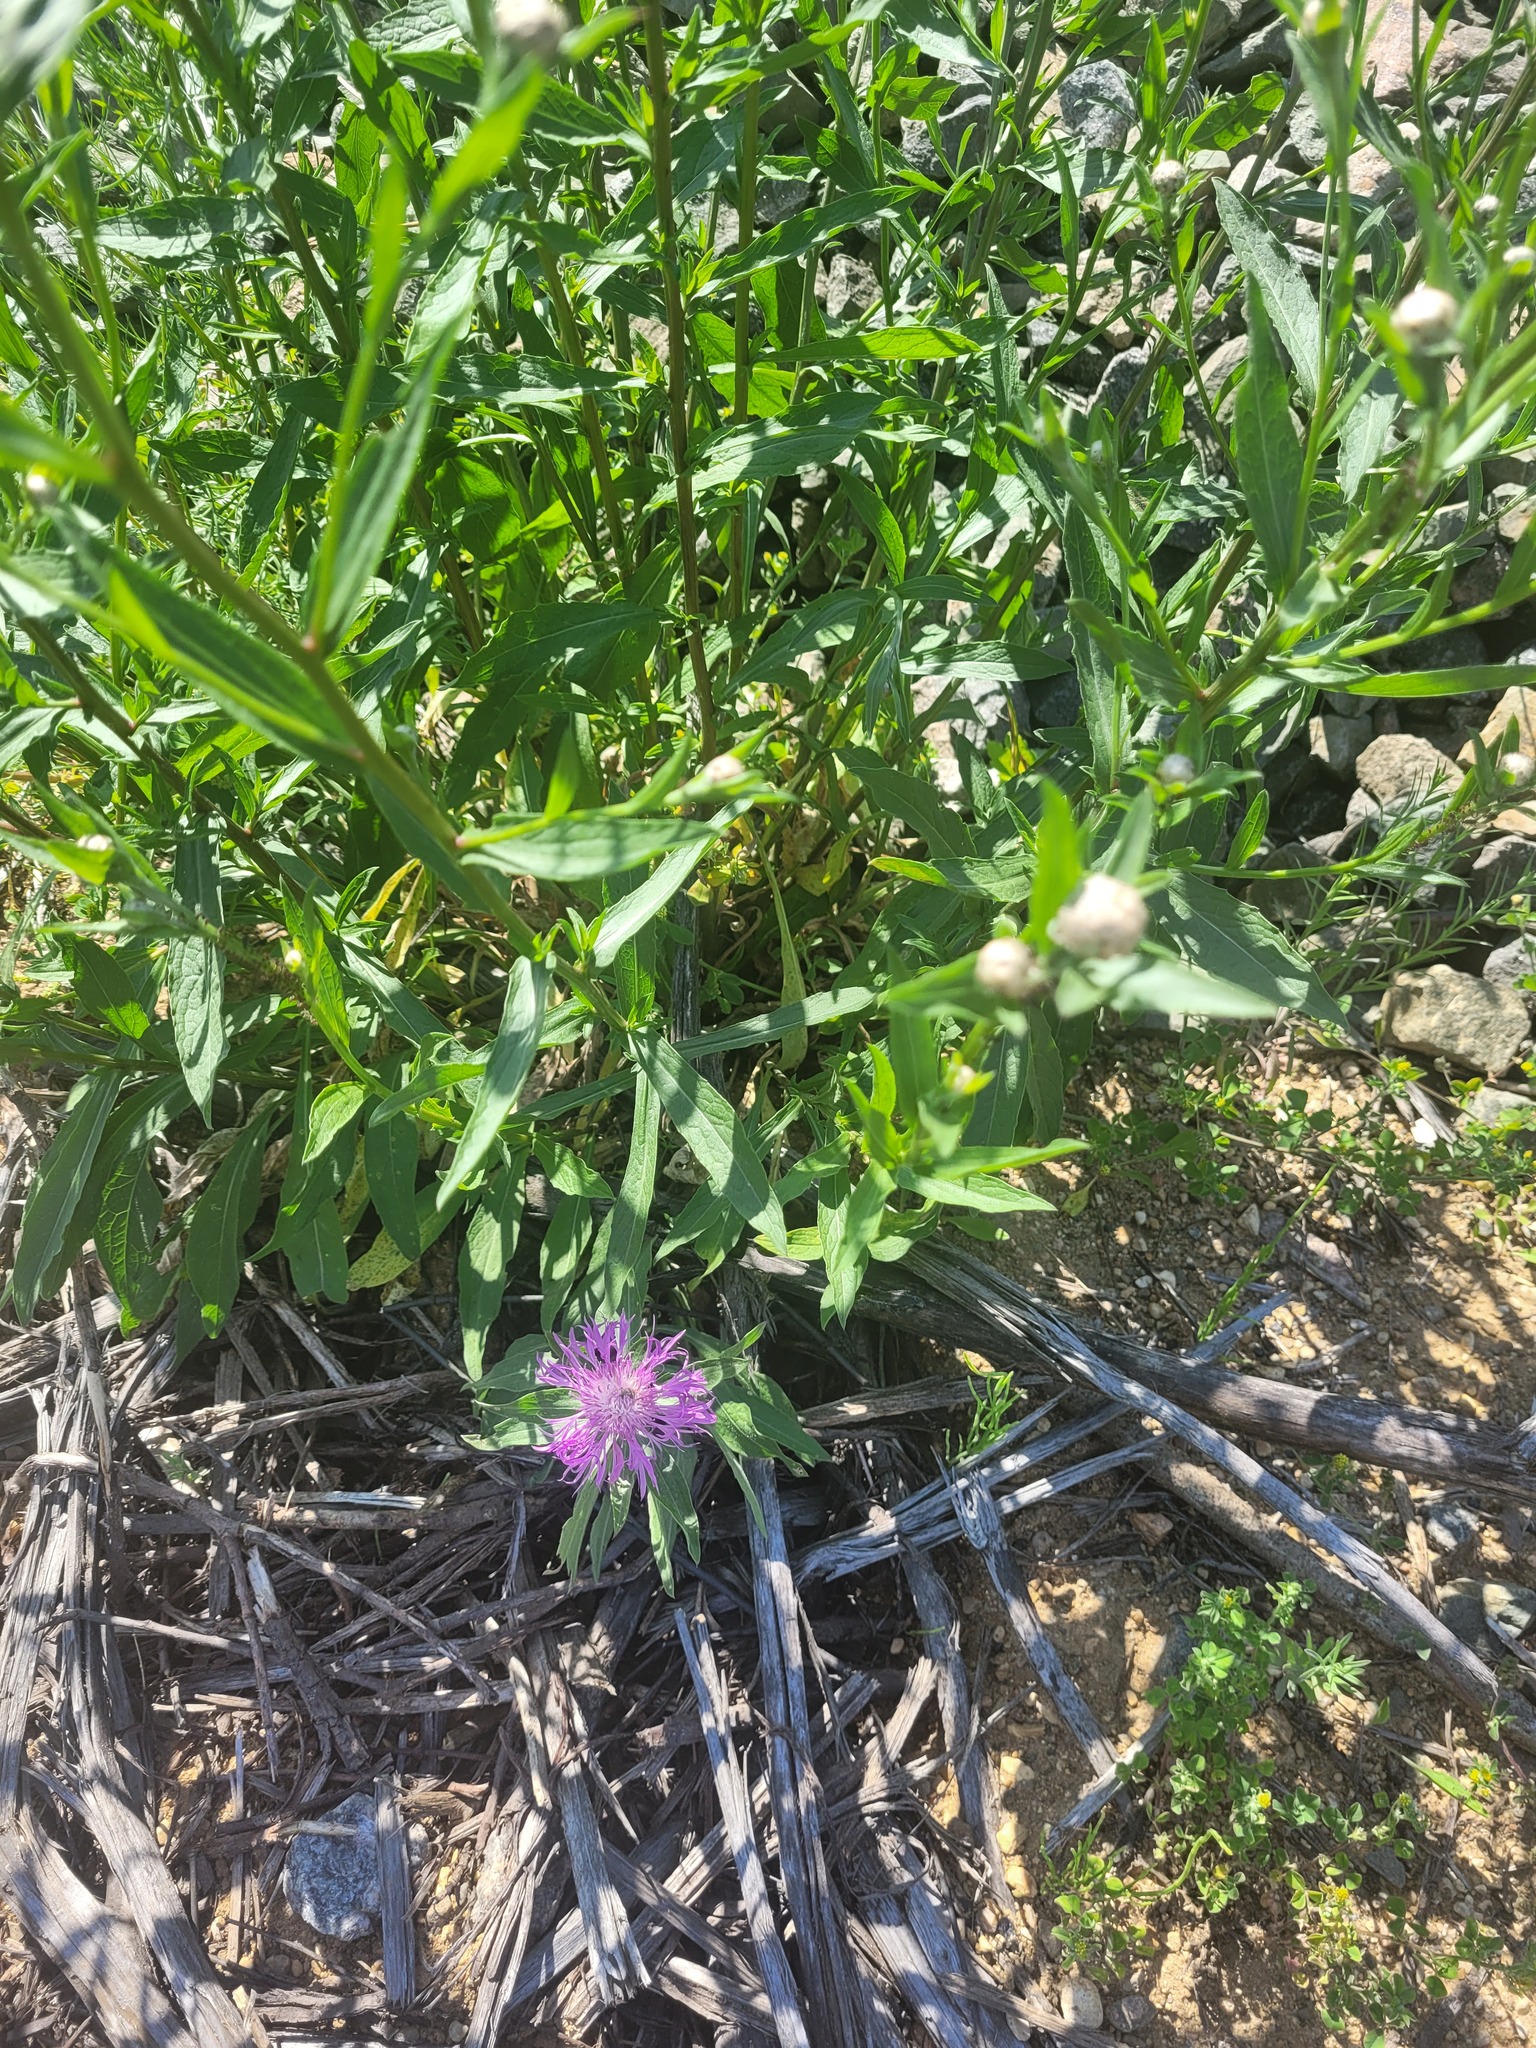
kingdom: Plantae
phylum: Tracheophyta
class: Magnoliopsida
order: Asterales
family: Asteraceae
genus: Centaurea
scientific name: Centaurea jacea
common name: Brown knapweed
